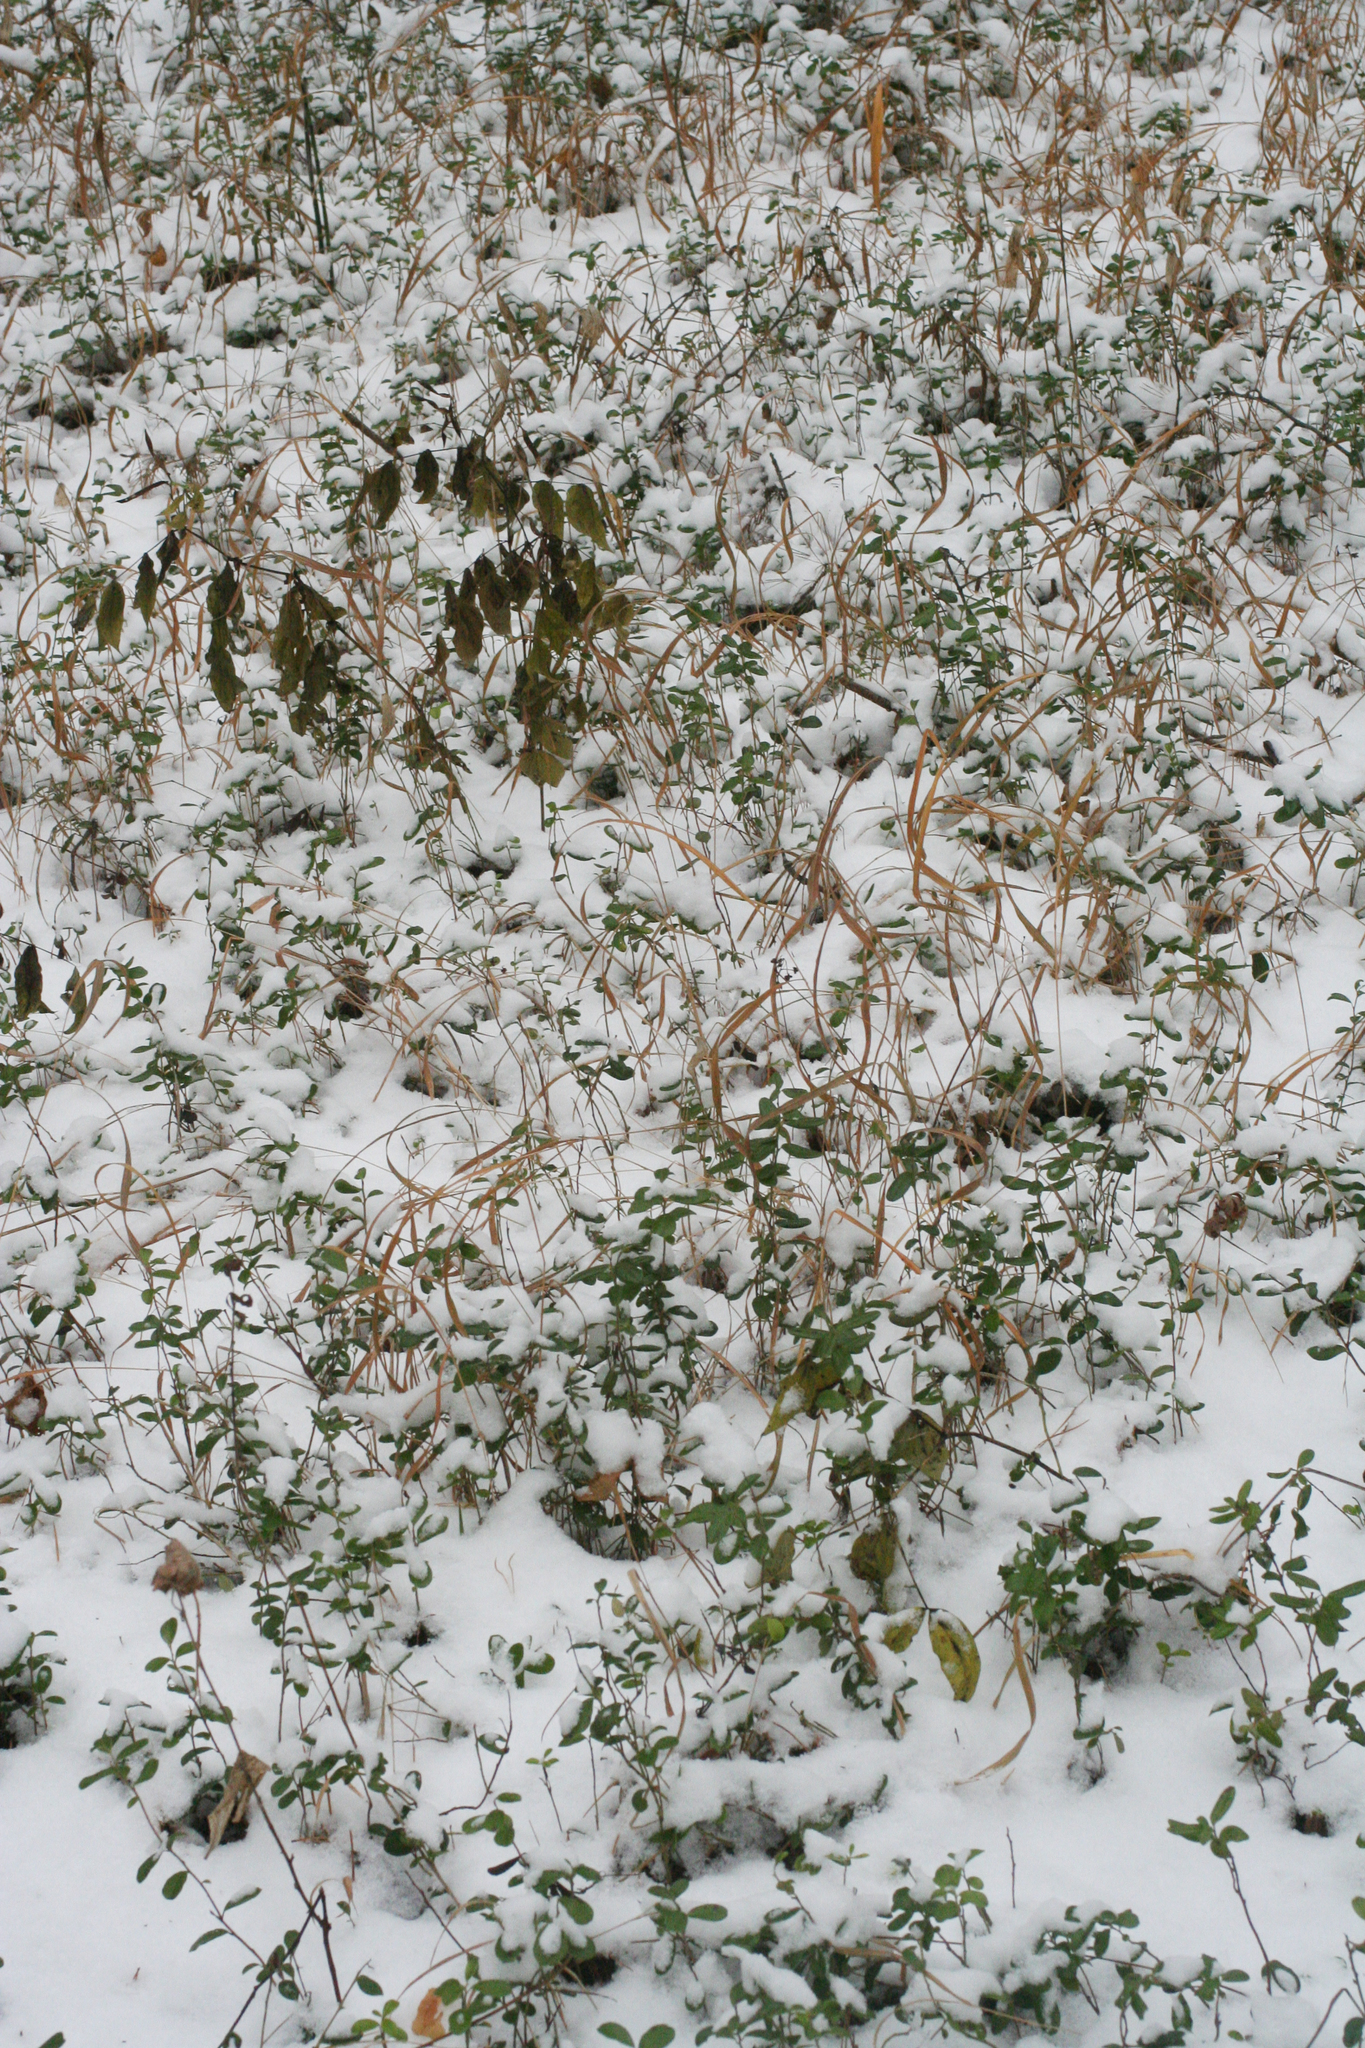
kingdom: Plantae
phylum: Tracheophyta
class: Magnoliopsida
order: Ericales
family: Ericaceae
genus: Vaccinium
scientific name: Vaccinium vitis-idaea
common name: Cowberry
